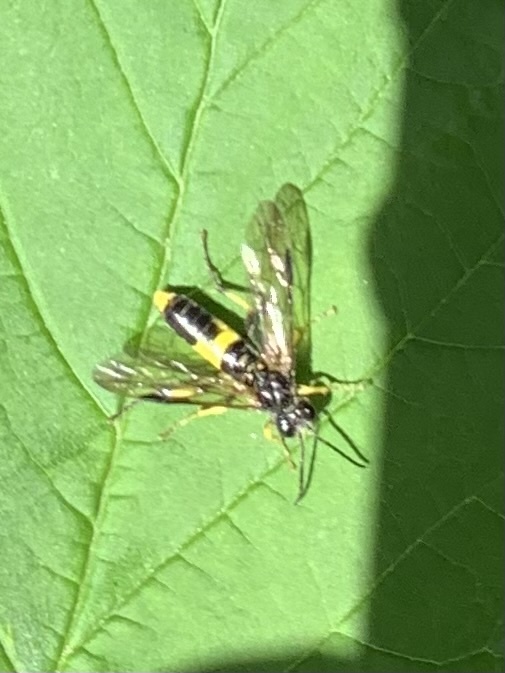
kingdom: Animalia
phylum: Arthropoda
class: Insecta
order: Hymenoptera
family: Tenthredinidae
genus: Tenthredo
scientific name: Tenthredo temula
